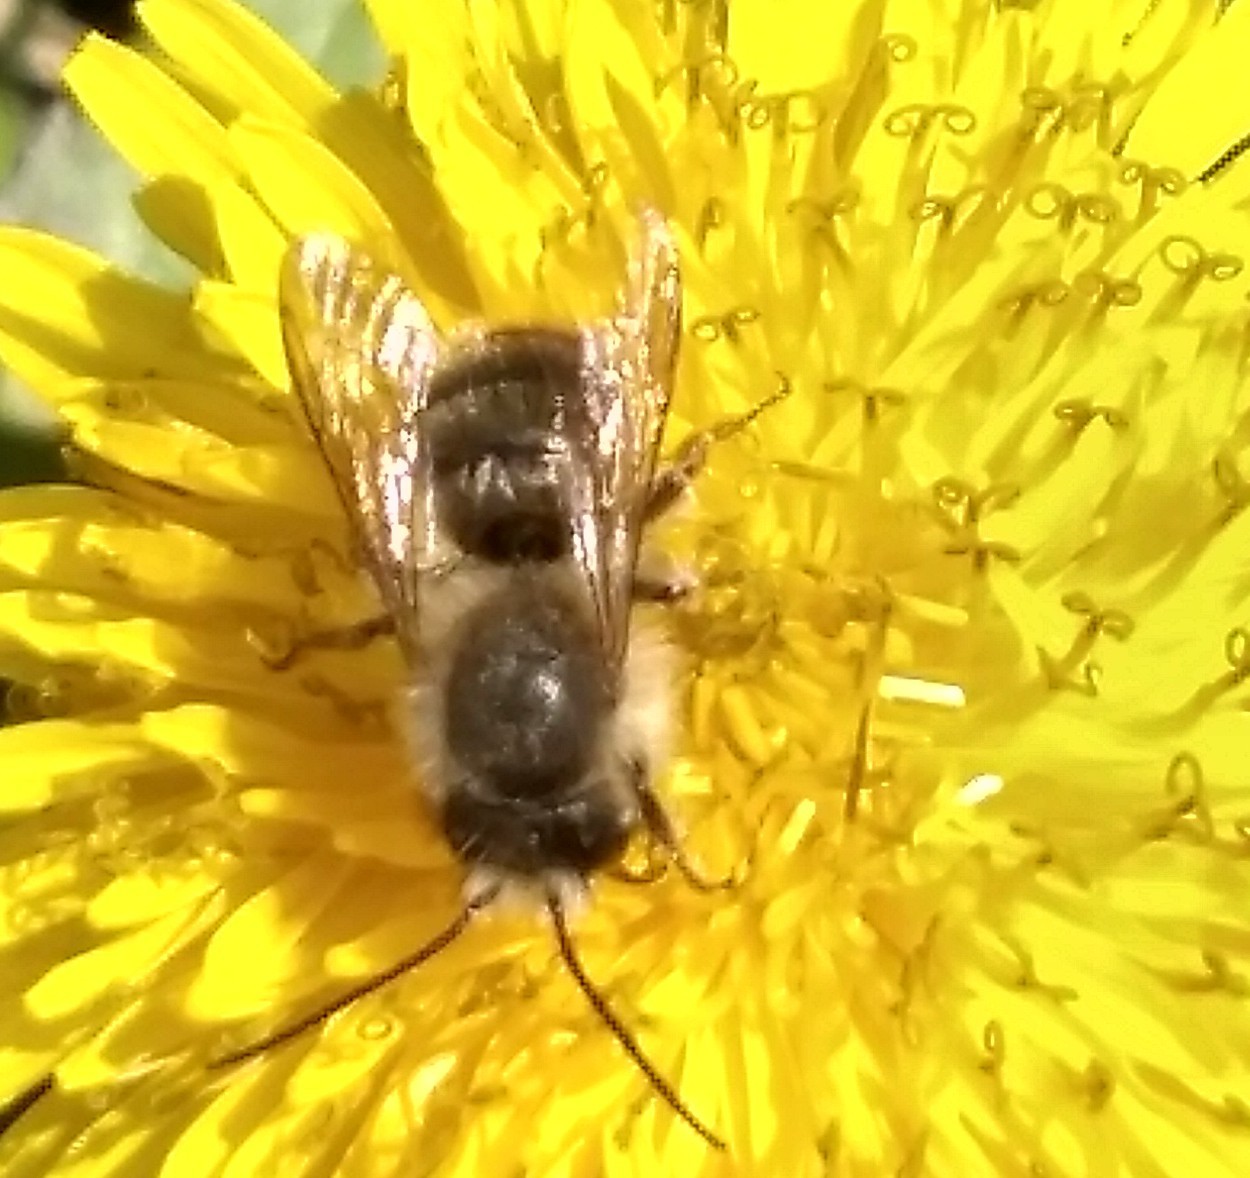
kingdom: Animalia
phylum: Arthropoda
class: Insecta
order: Hymenoptera
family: Megachilidae
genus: Osmia
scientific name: Osmia cornifrons
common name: Horn-faced bee
